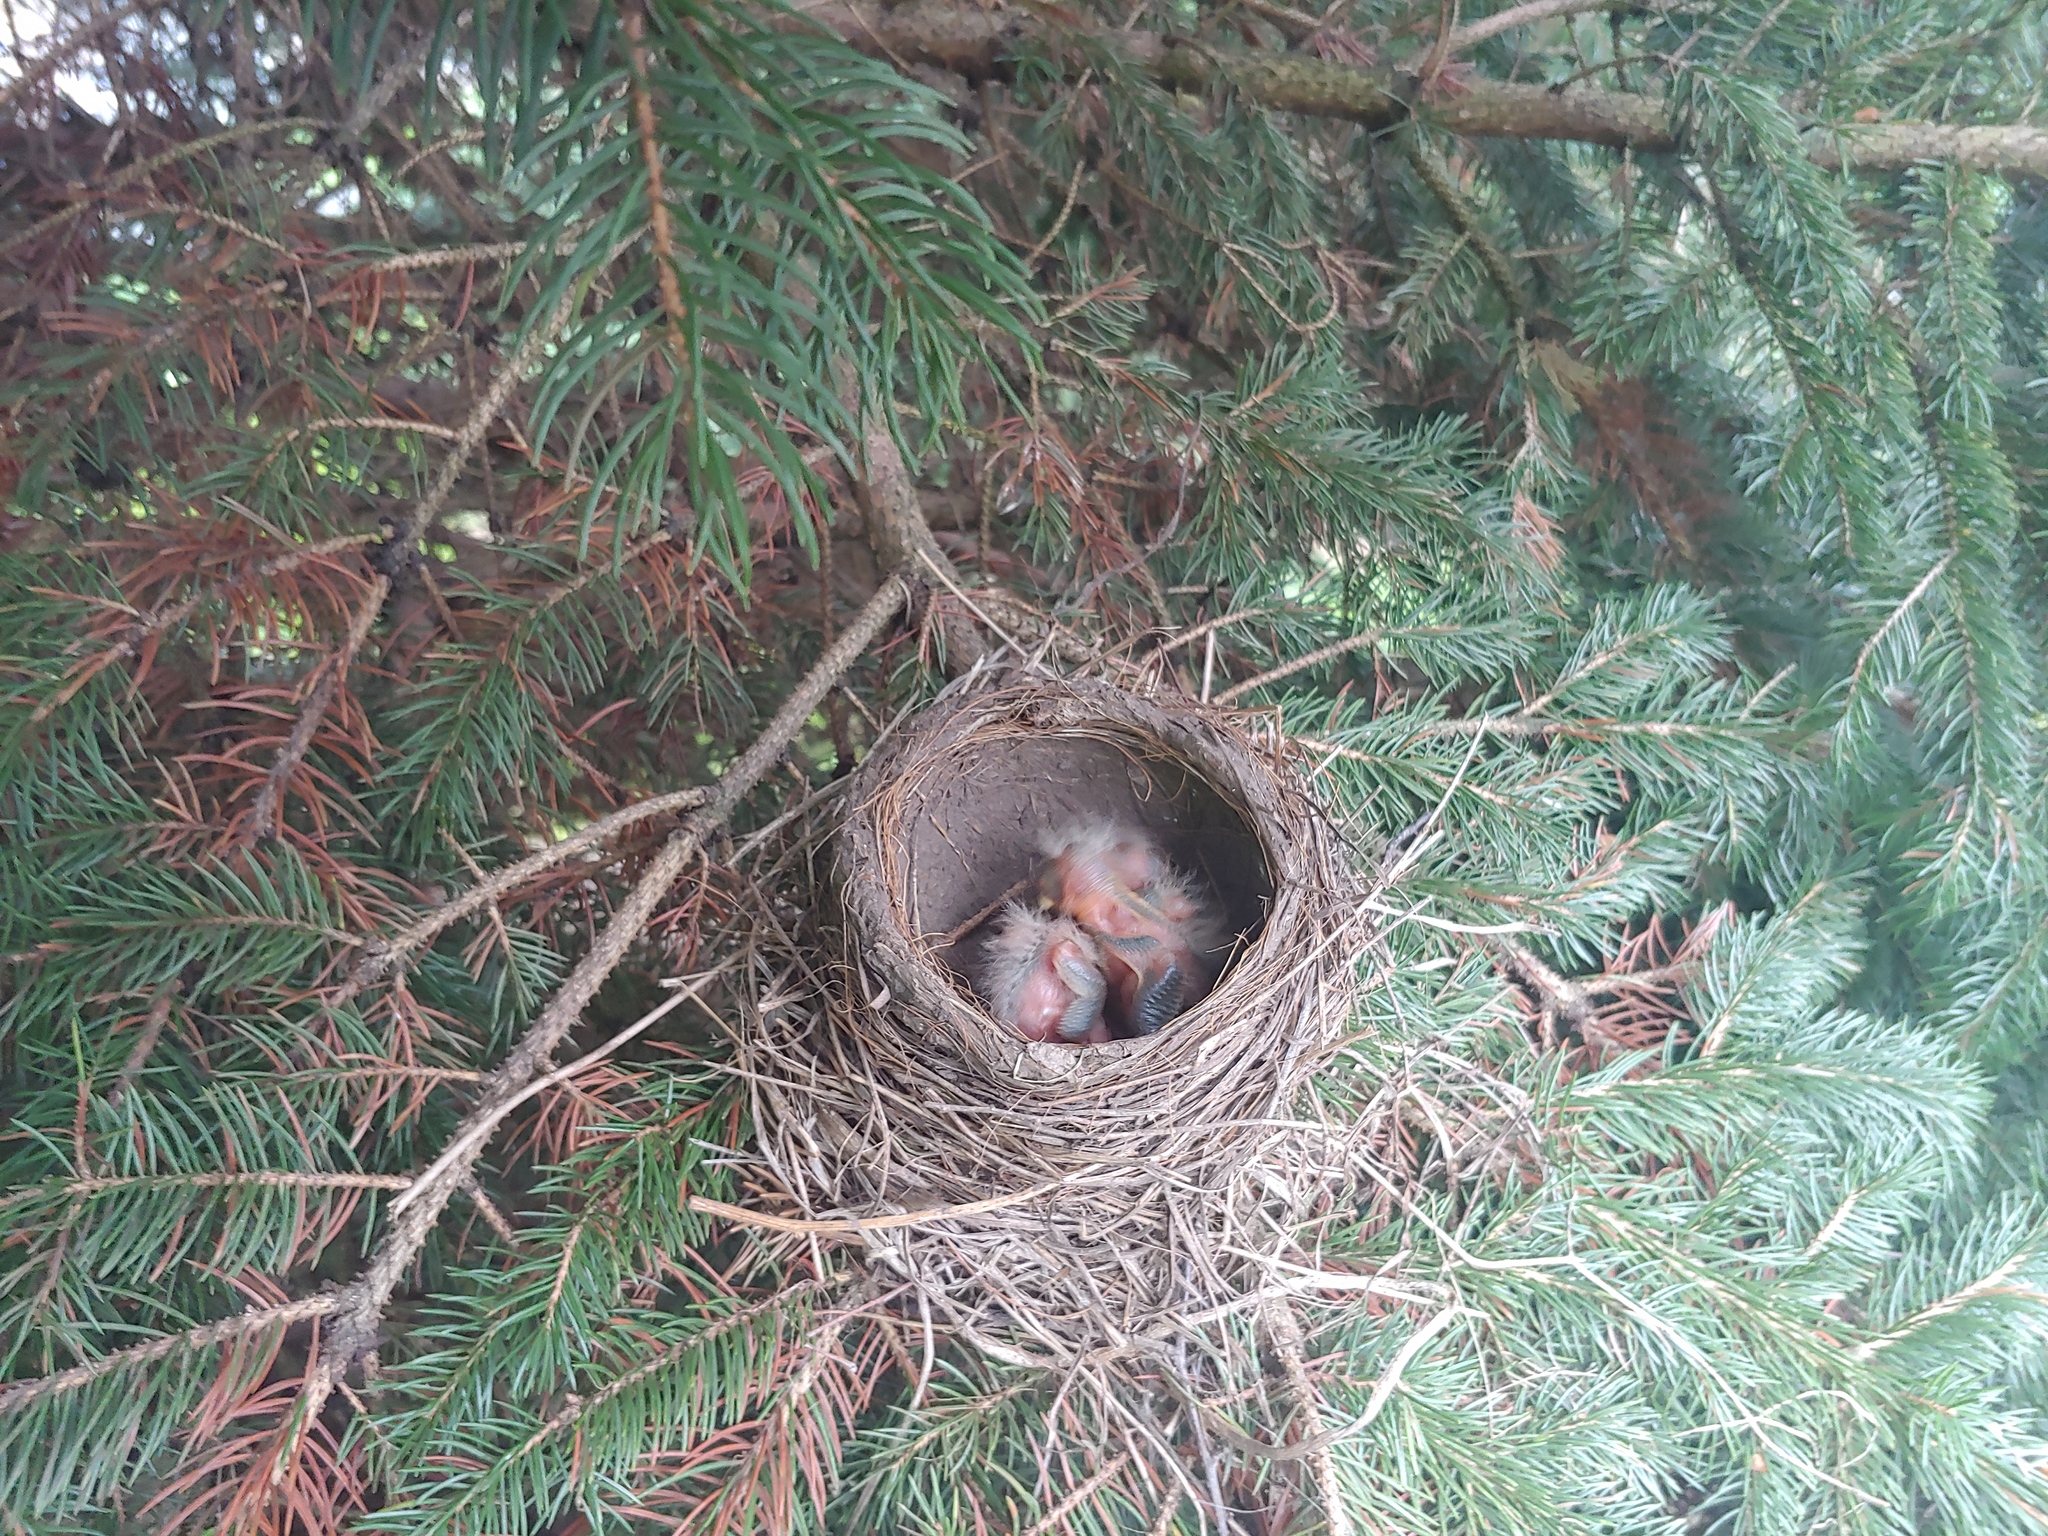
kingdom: Animalia
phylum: Chordata
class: Aves
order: Passeriformes
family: Turdidae
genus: Turdus
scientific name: Turdus migratorius
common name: American robin
